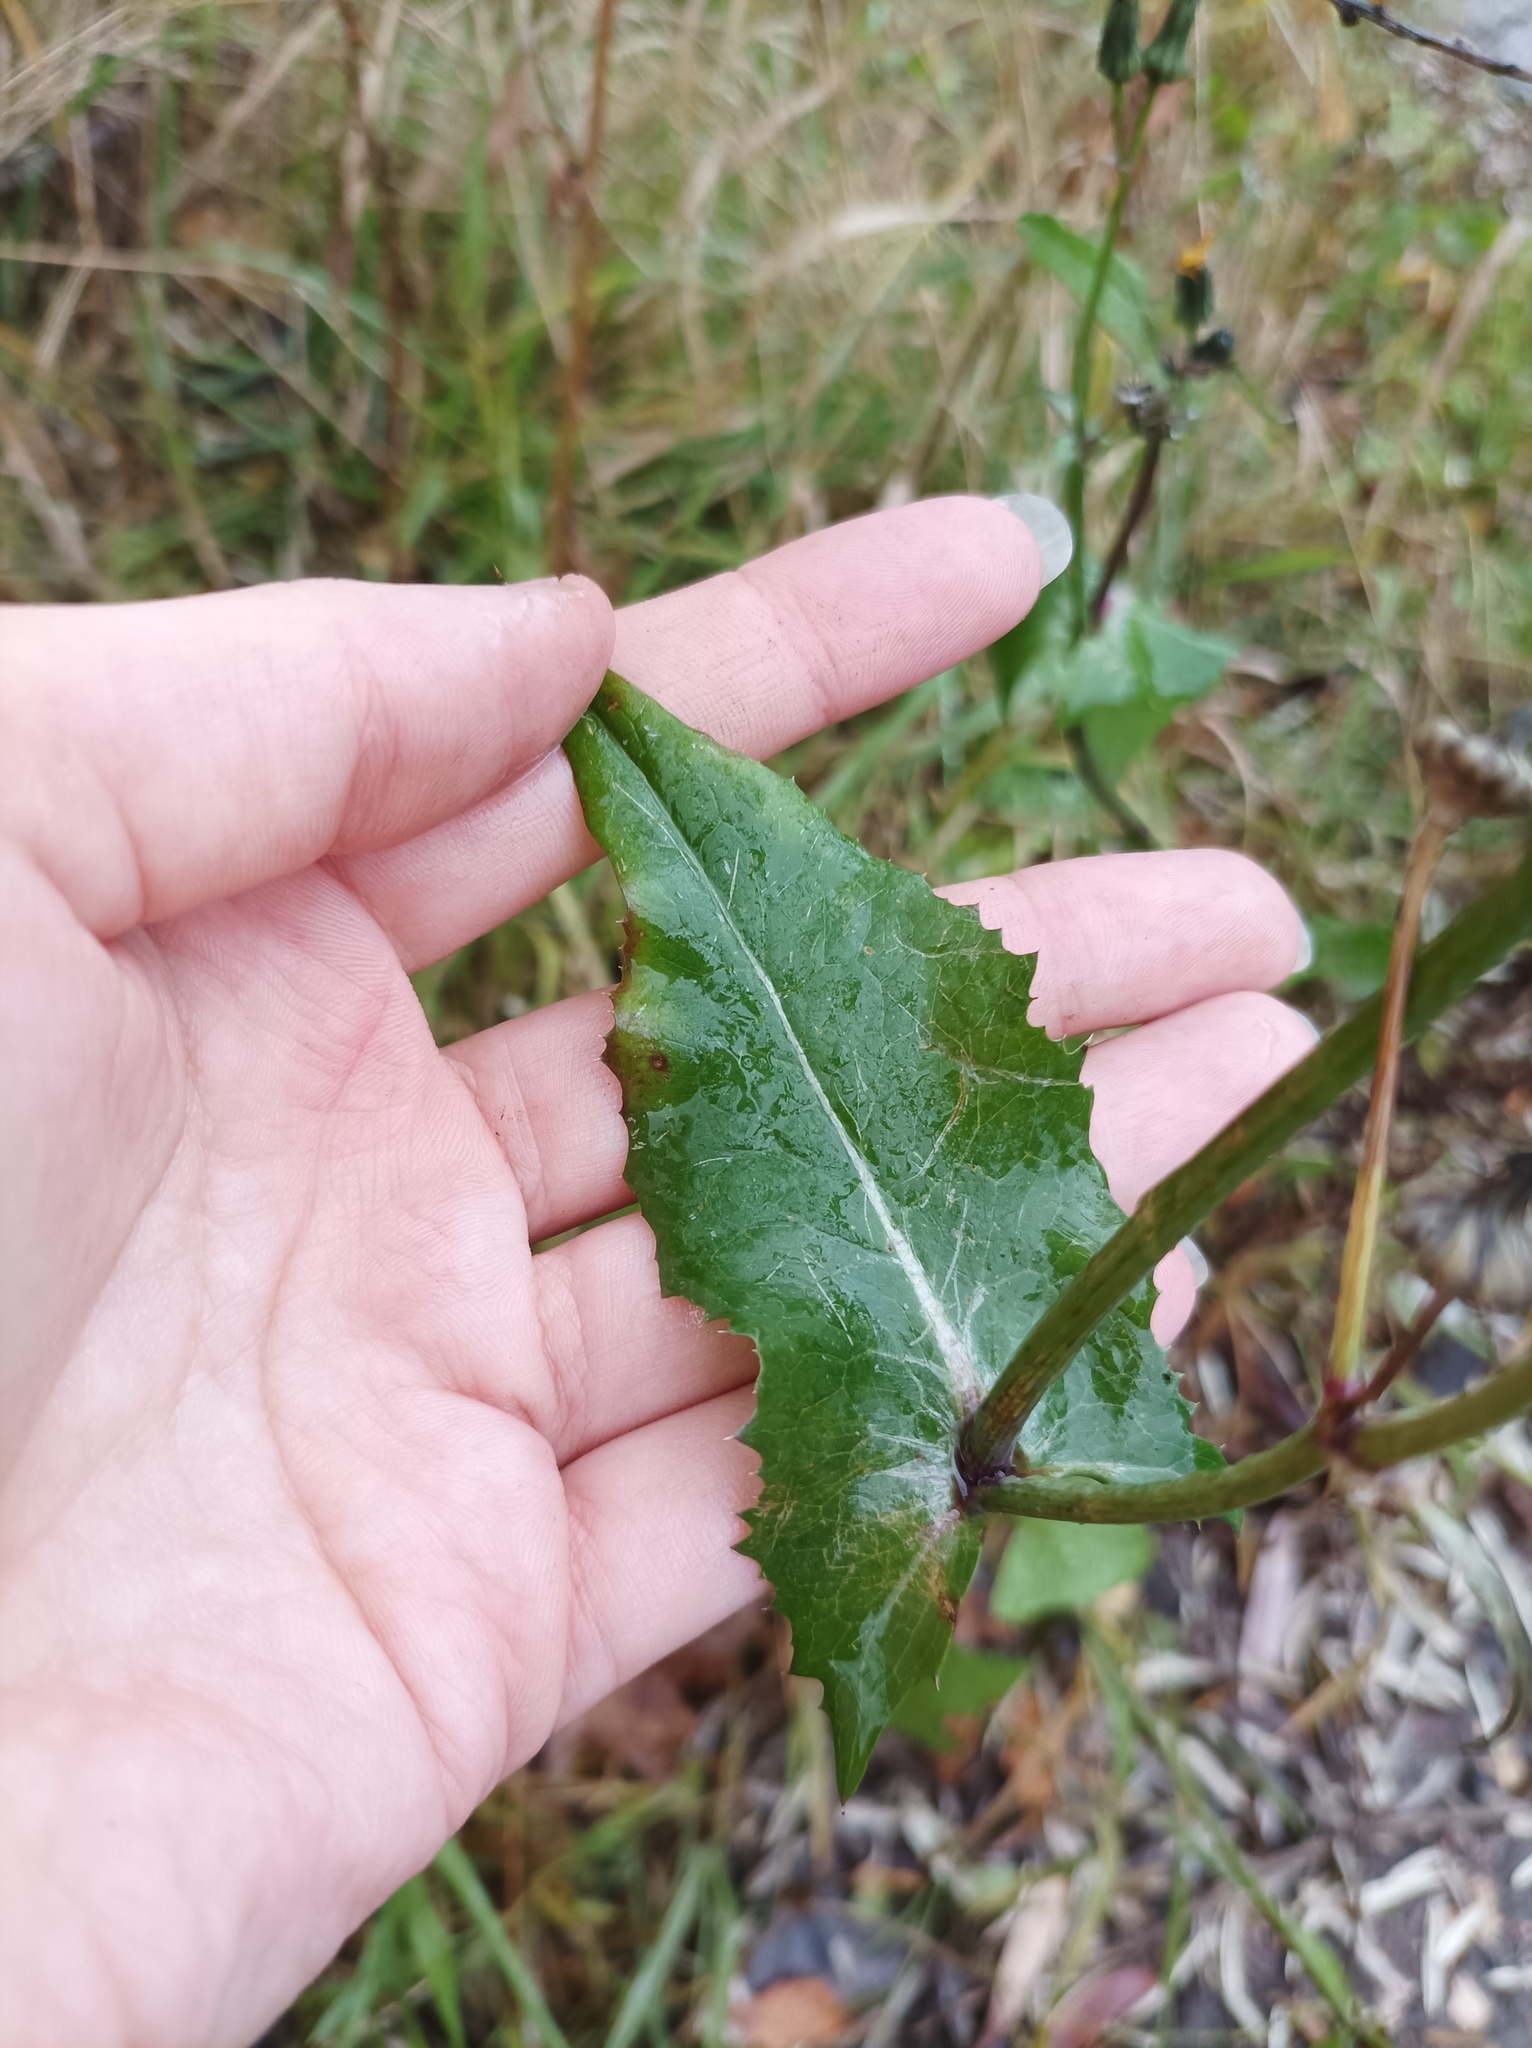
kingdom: Plantae
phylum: Tracheophyta
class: Magnoliopsida
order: Asterales
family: Asteraceae
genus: Sonchus
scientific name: Sonchus oleraceus
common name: Common sowthistle
